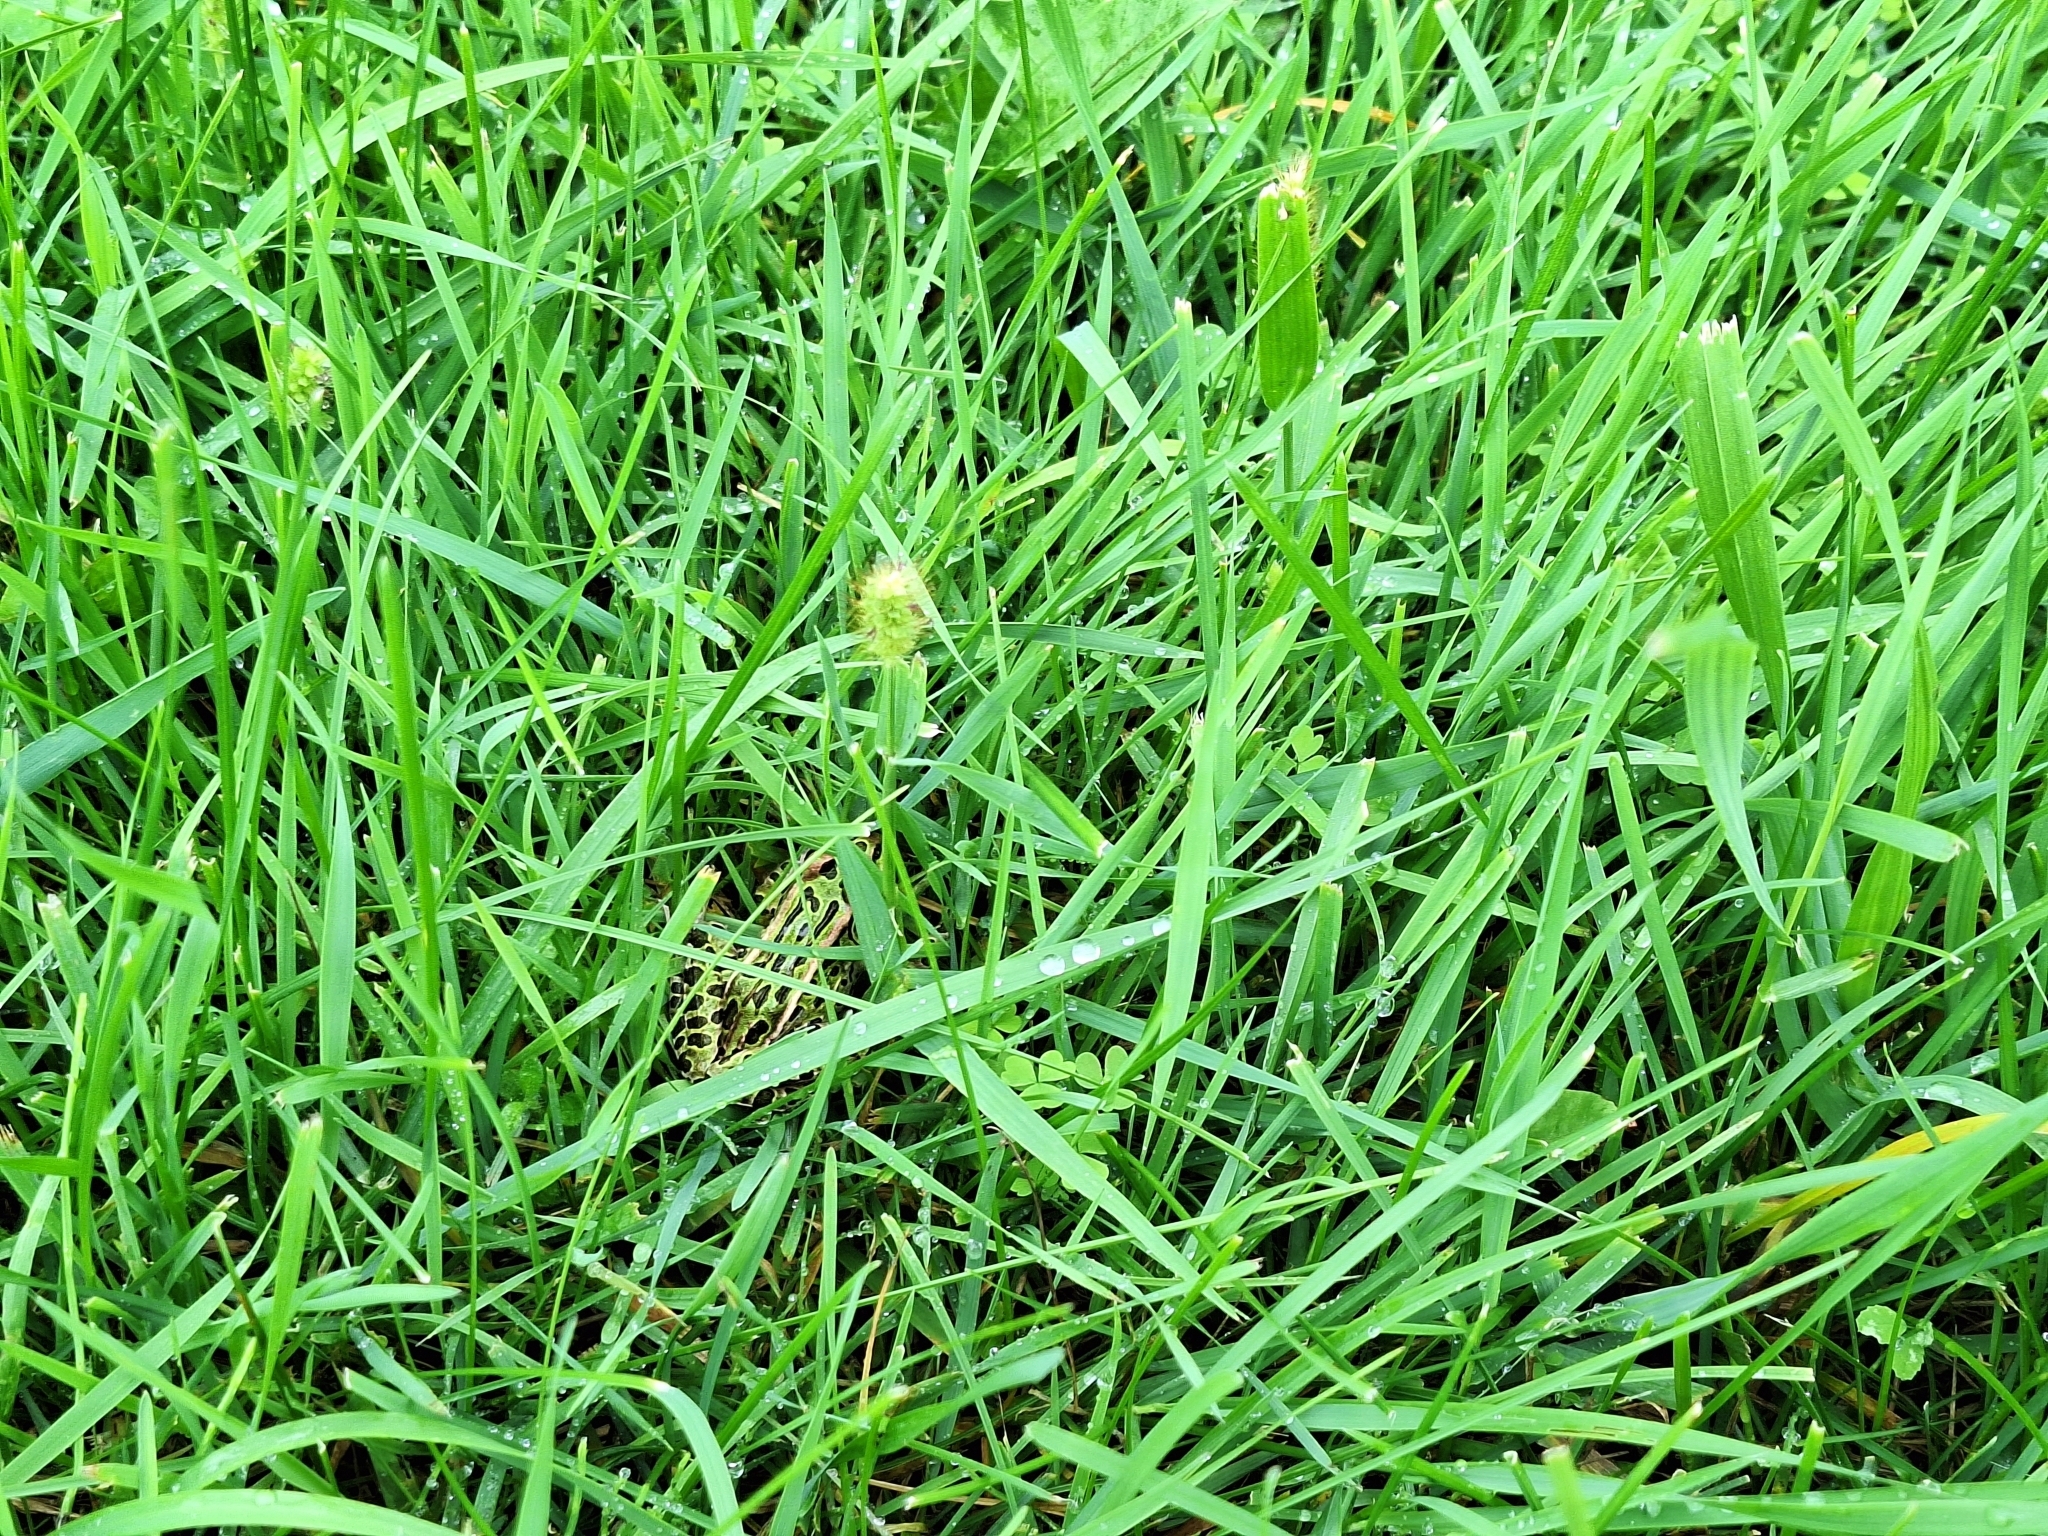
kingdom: Animalia
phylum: Chordata
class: Amphibia
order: Anura
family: Ranidae
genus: Lithobates
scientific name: Lithobates pipiens
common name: Northern leopard frog
